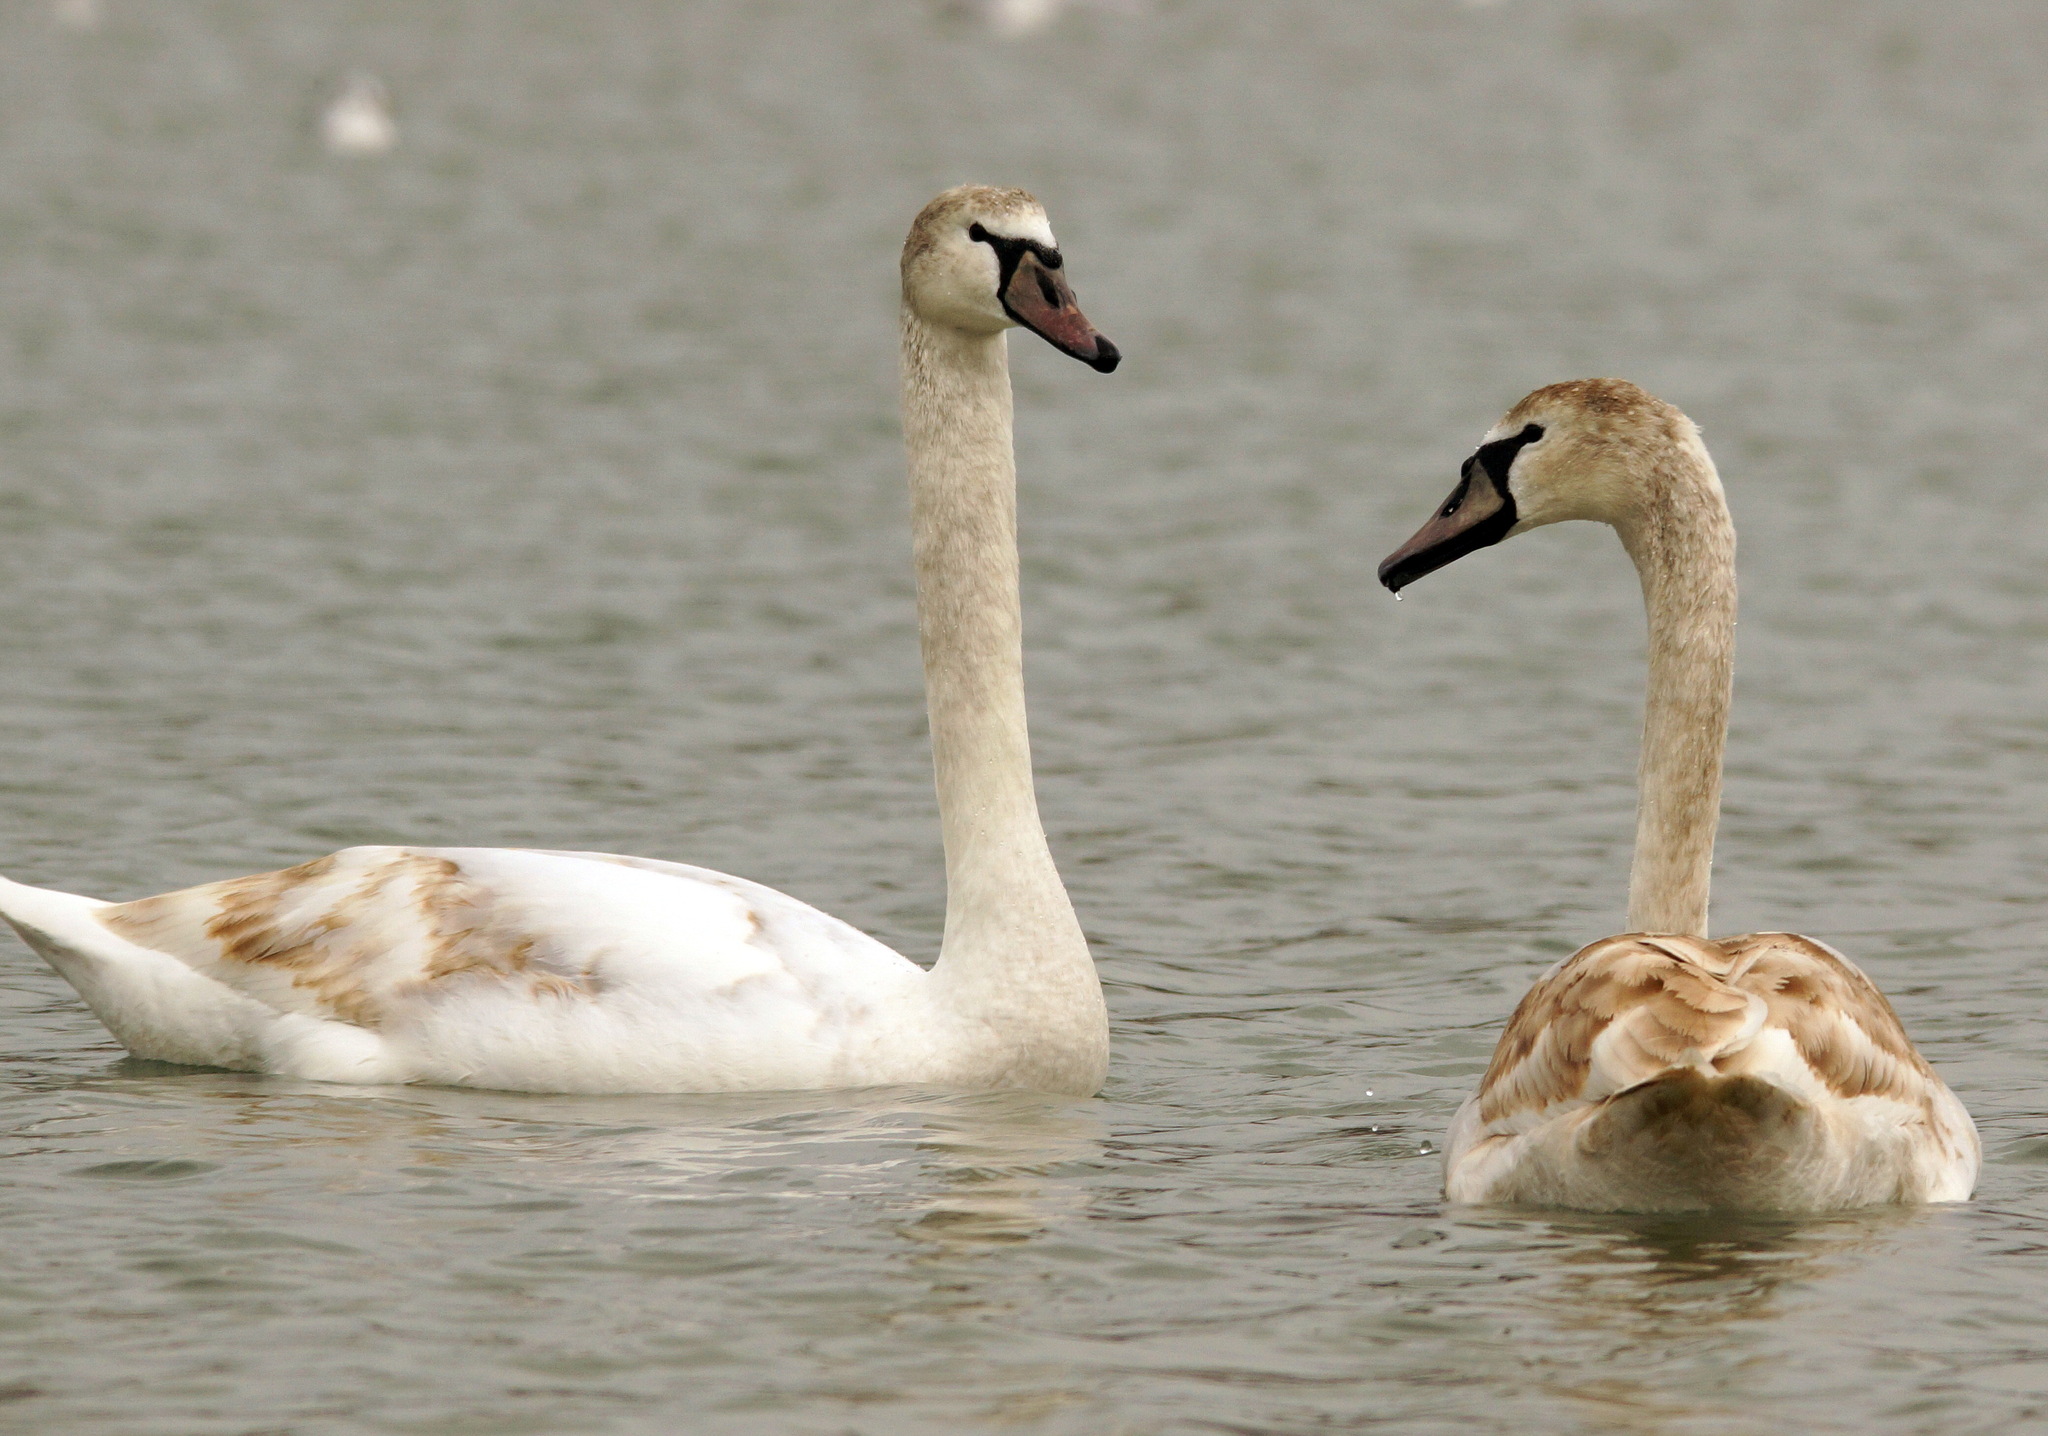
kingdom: Animalia
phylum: Chordata
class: Aves
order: Anseriformes
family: Anatidae
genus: Cygnus
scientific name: Cygnus olor
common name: Mute swan
